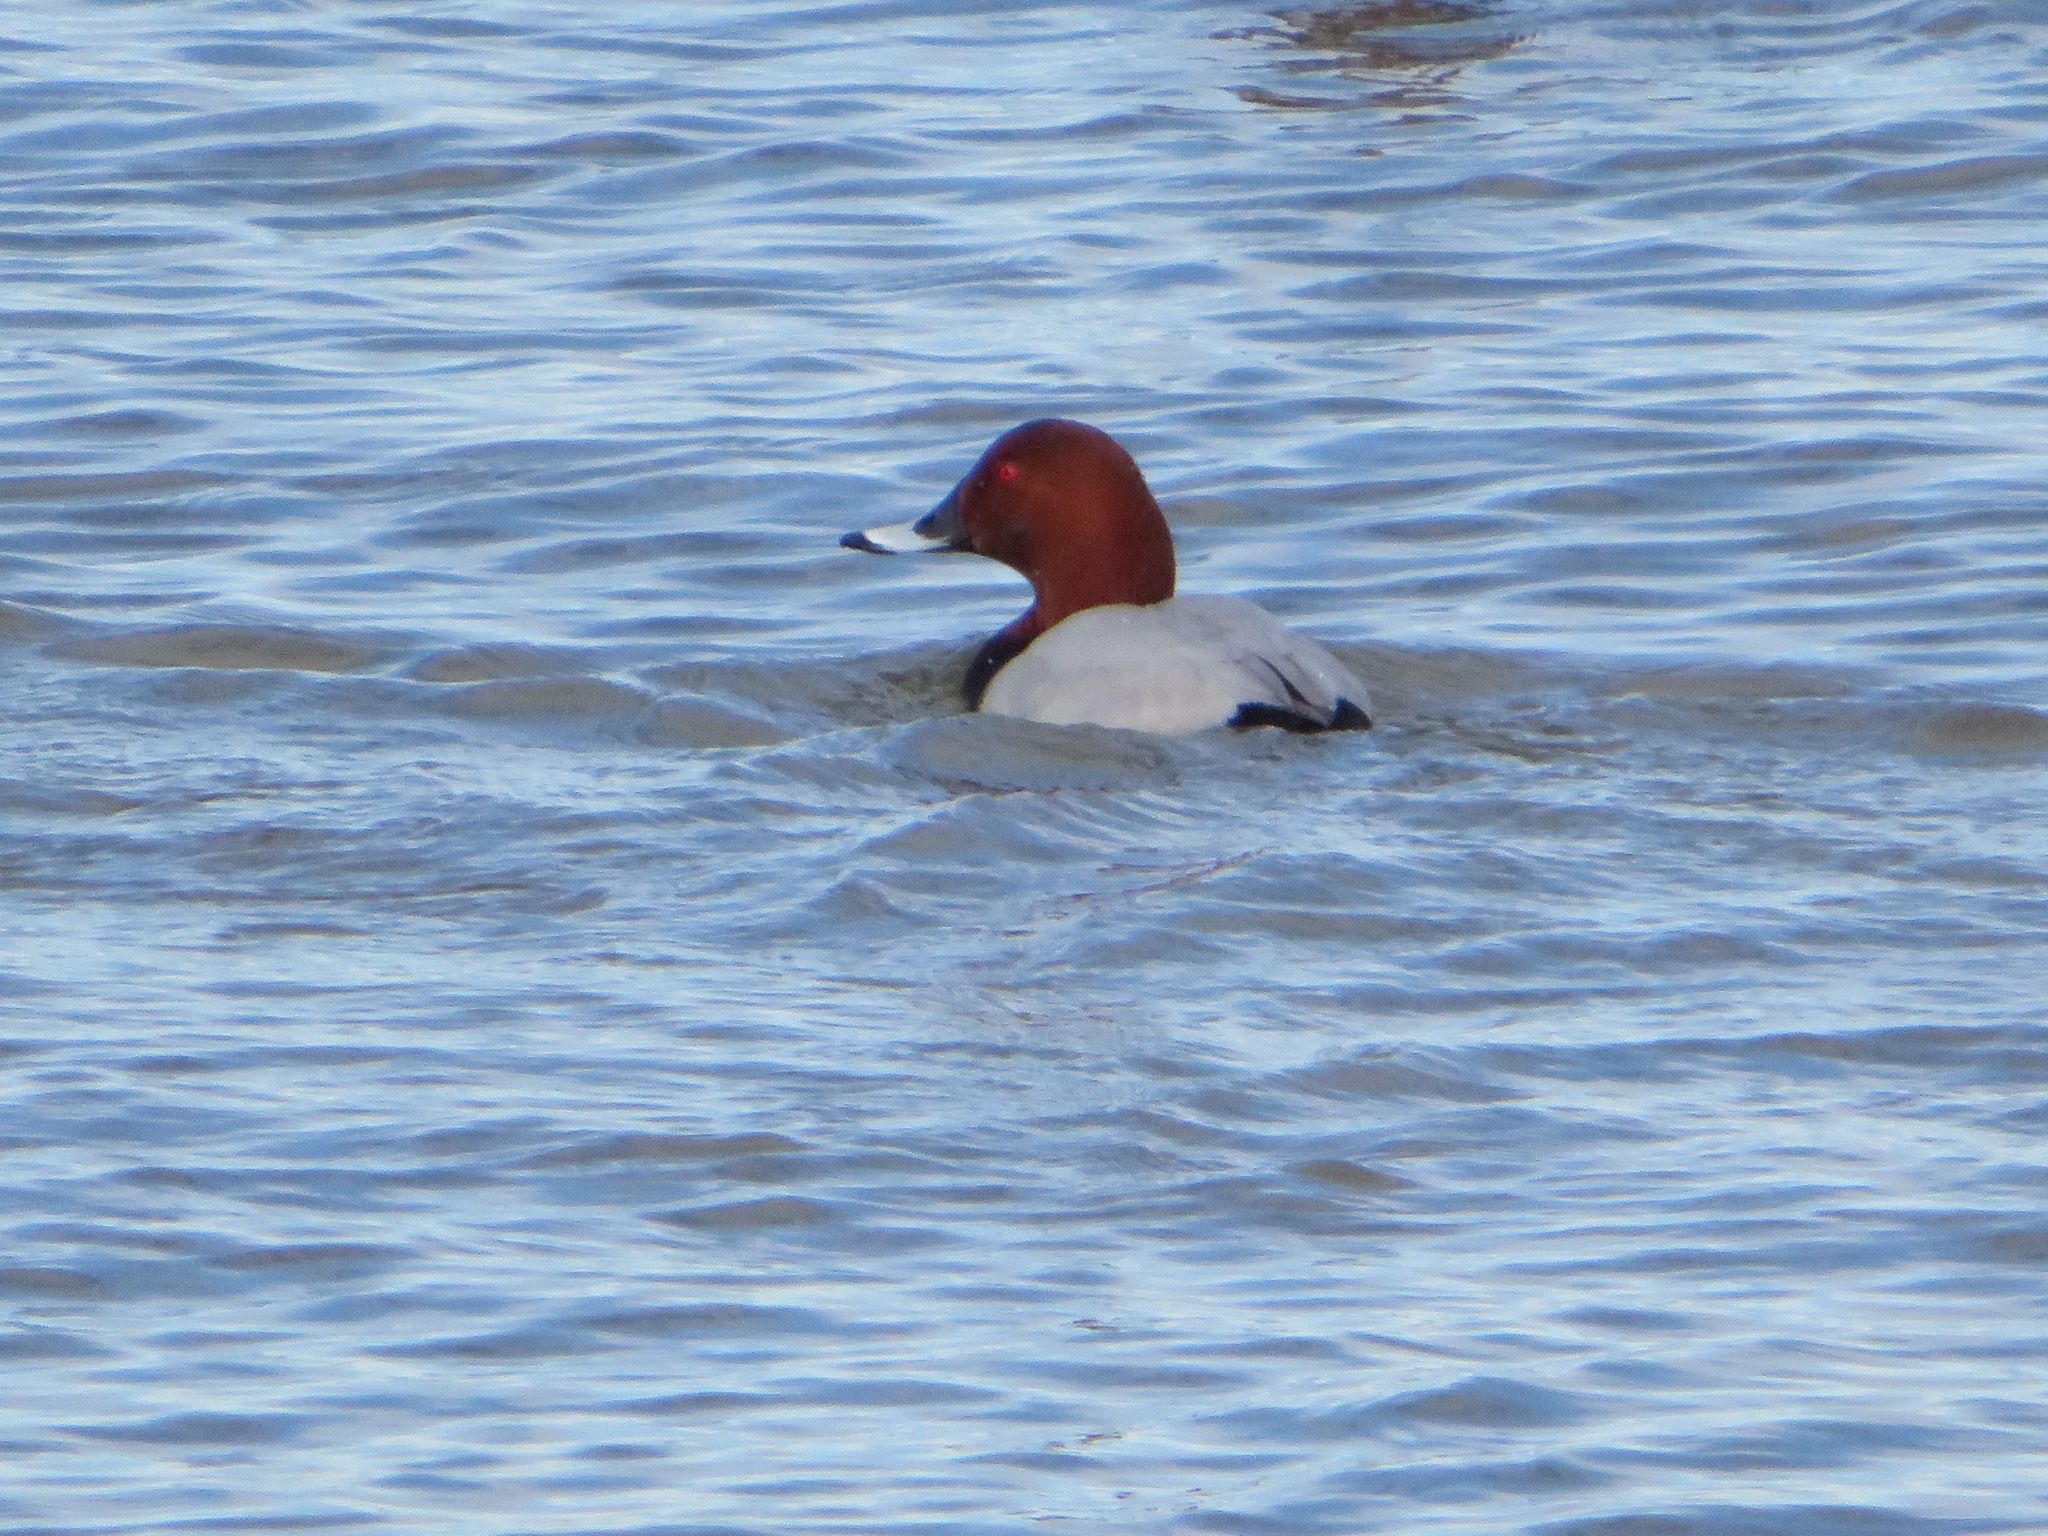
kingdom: Animalia
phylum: Chordata
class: Aves
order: Anseriformes
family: Anatidae
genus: Aythya
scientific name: Aythya ferina
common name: Common pochard
